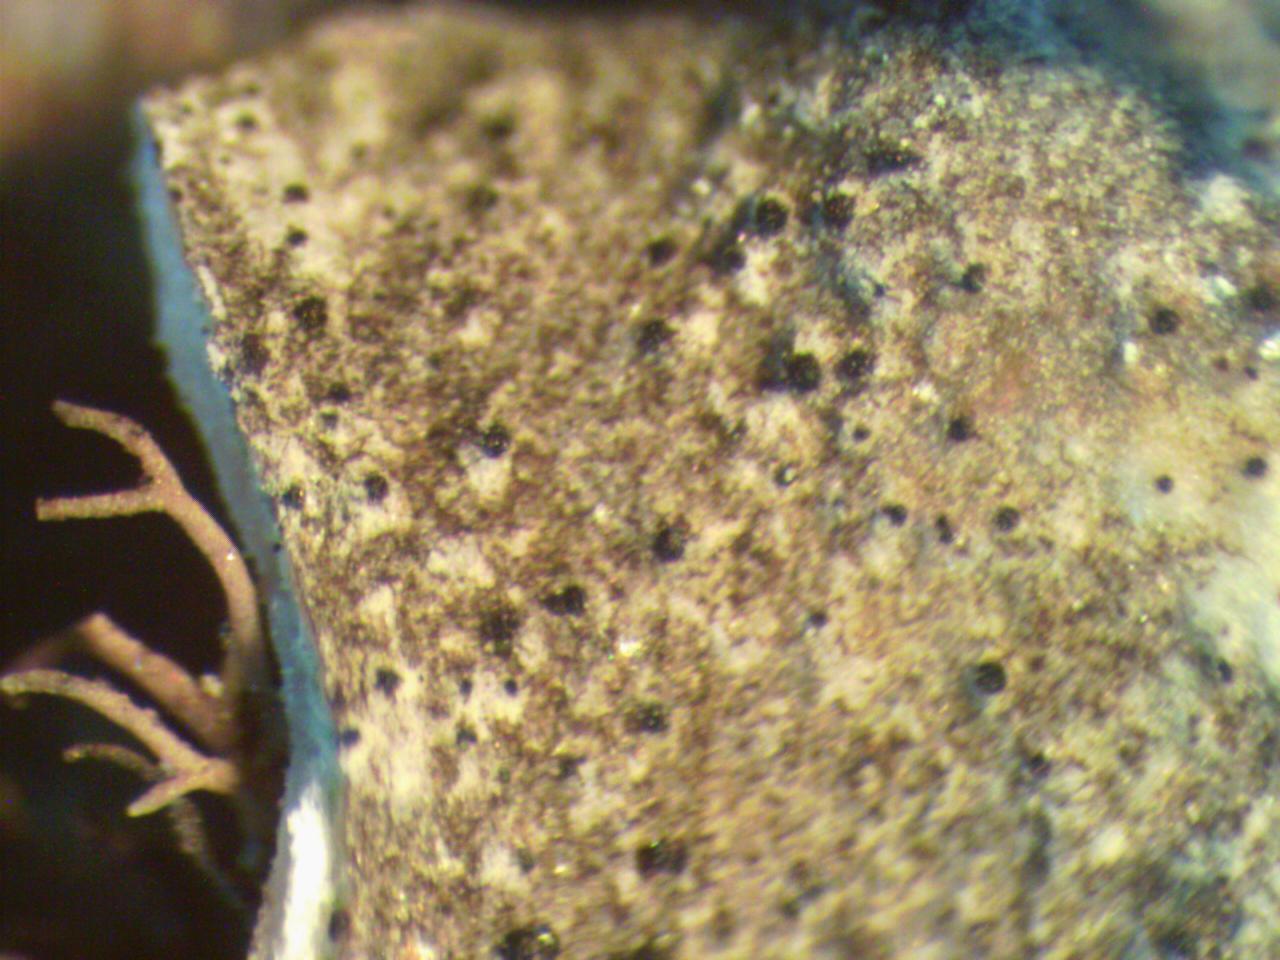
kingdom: Fungi
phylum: Ascomycota
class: Dothideomycetes
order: Mycosphaerellales
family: Mycosphaerellaceae
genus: Stigmidium
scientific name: Stigmidium gyrophorarum
